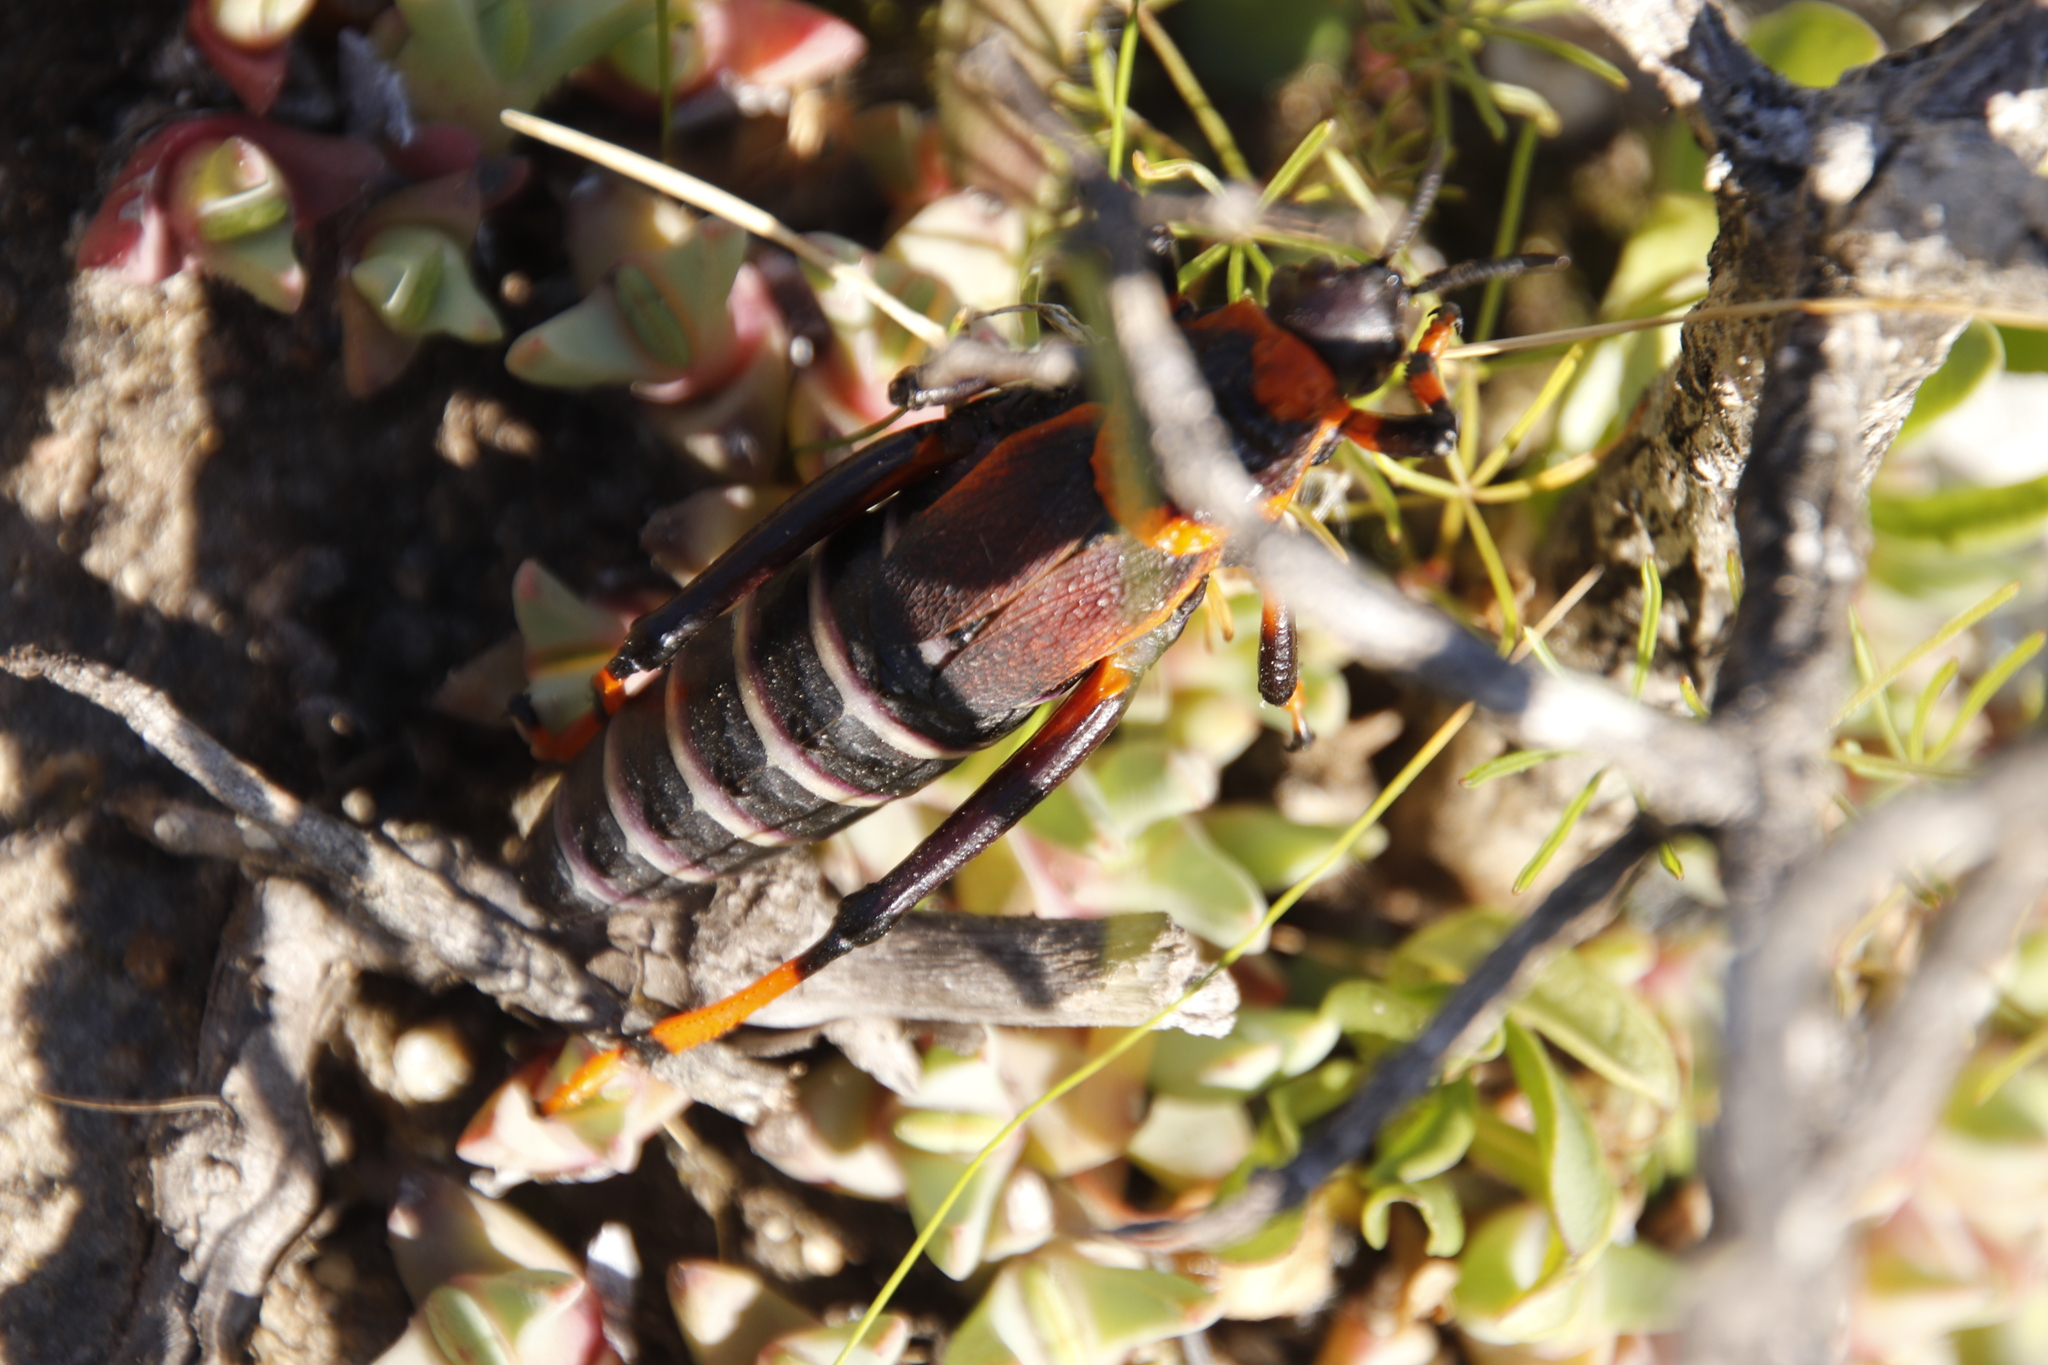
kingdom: Animalia
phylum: Arthropoda
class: Insecta
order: Orthoptera
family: Pyrgomorphidae
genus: Dictyophorus
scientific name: Dictyophorus spumans
